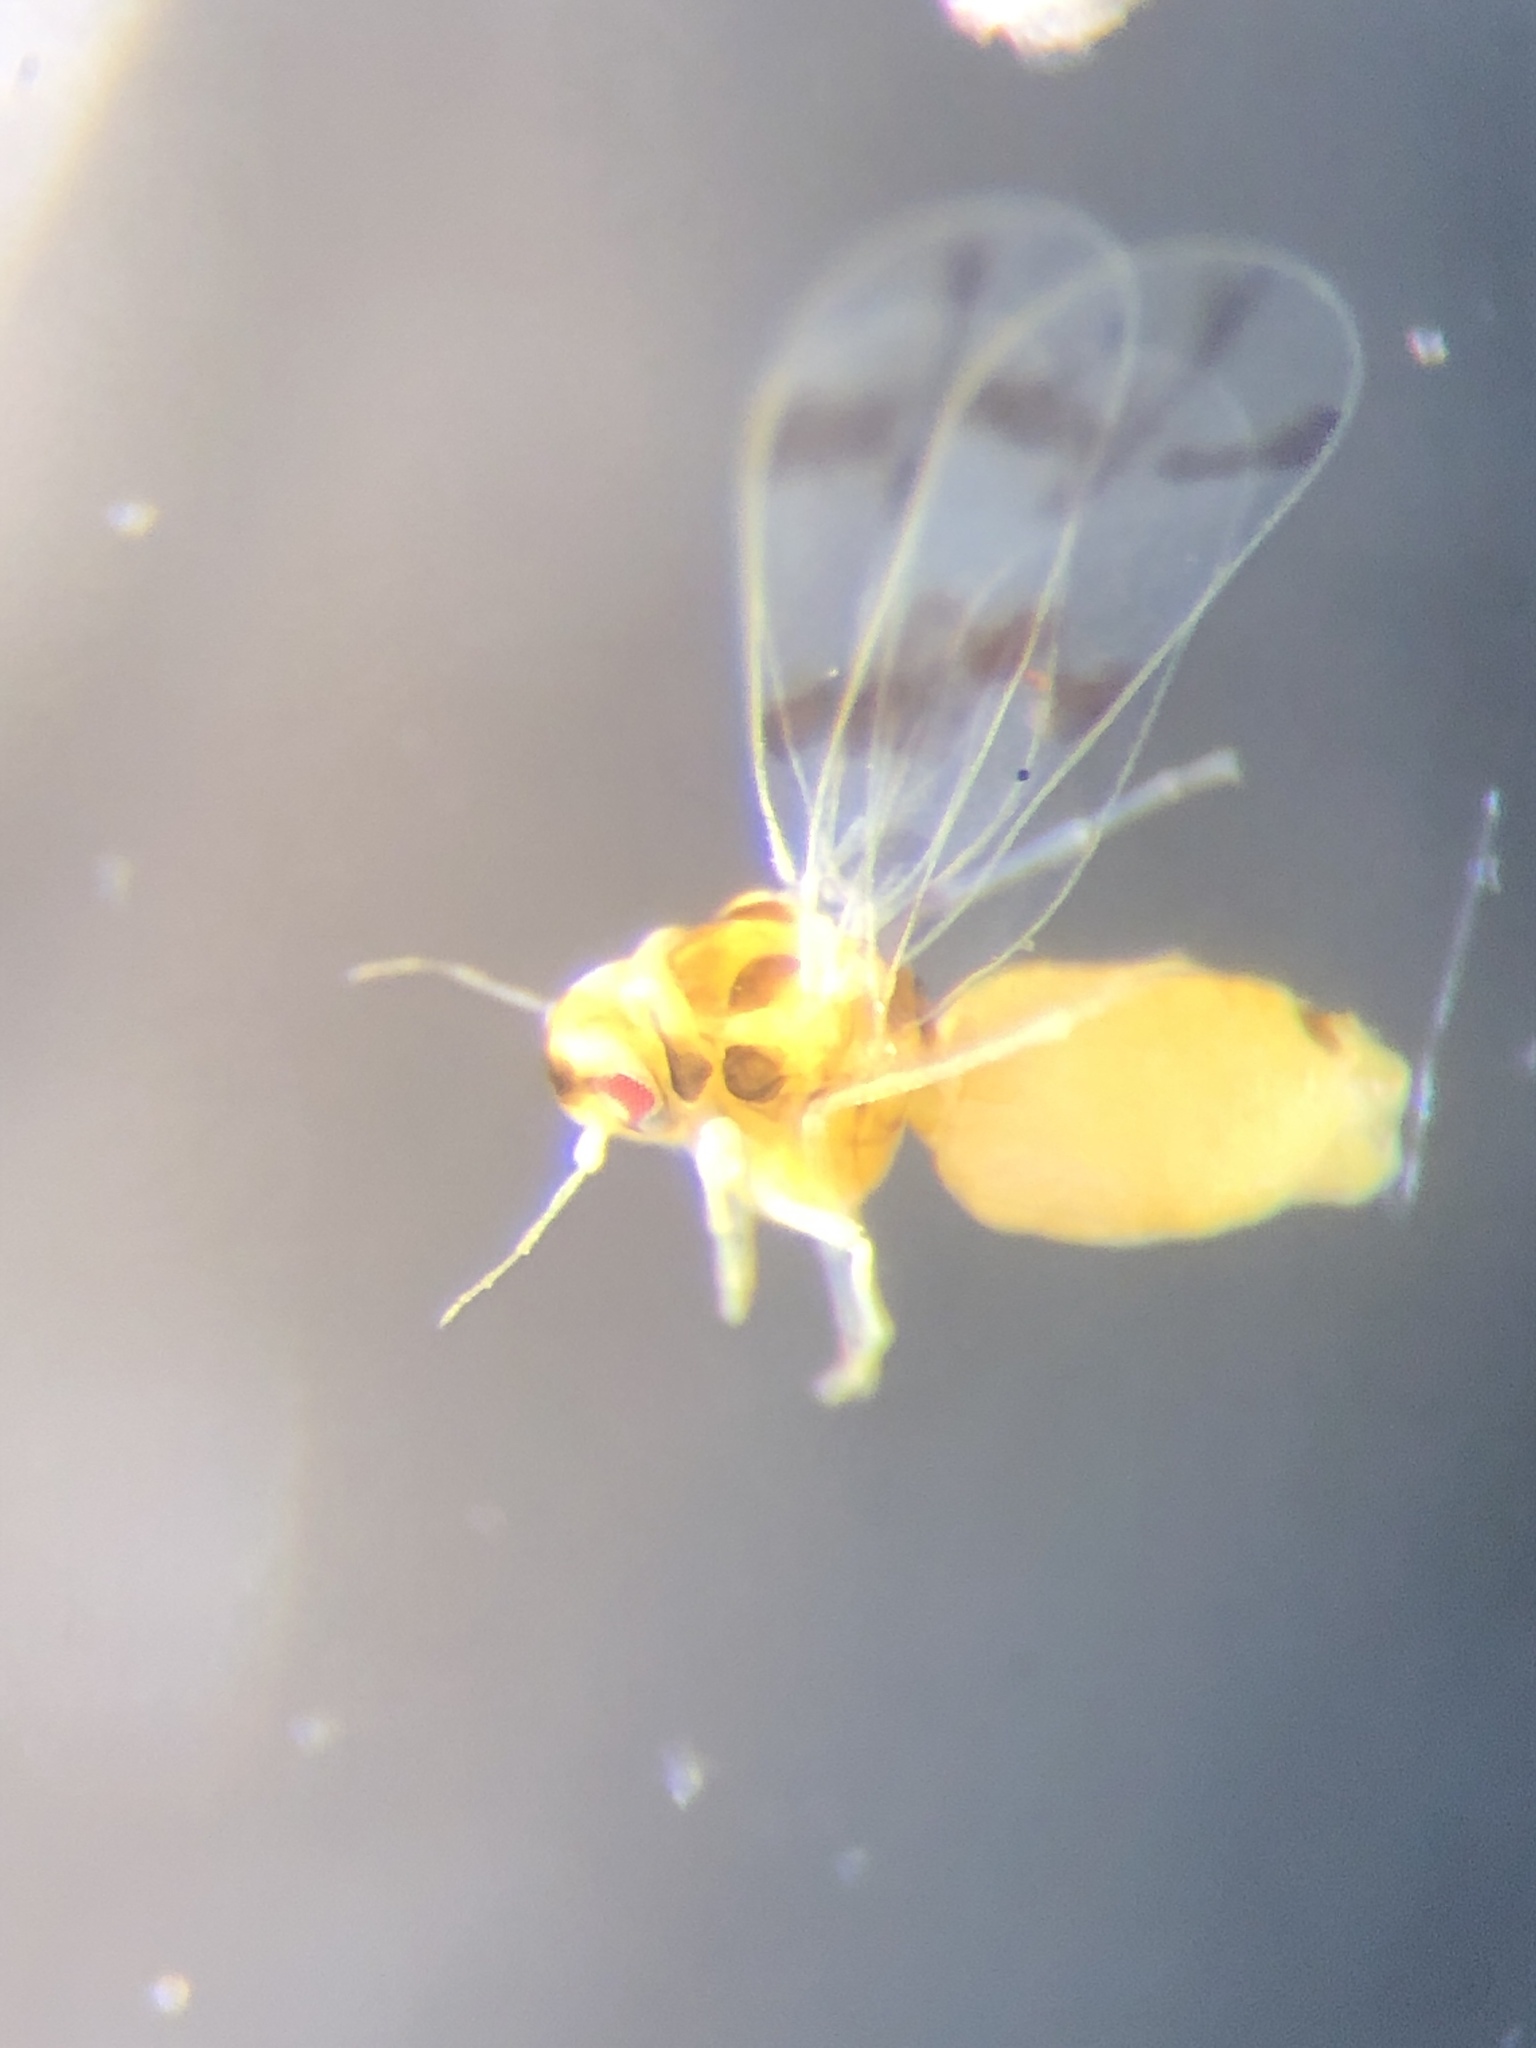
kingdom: Animalia
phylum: Arthropoda
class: Insecta
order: Hemiptera
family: Aleyrodidae
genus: Trialeurodes
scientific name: Trialeurodes abutiloneus
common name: Whitefly
